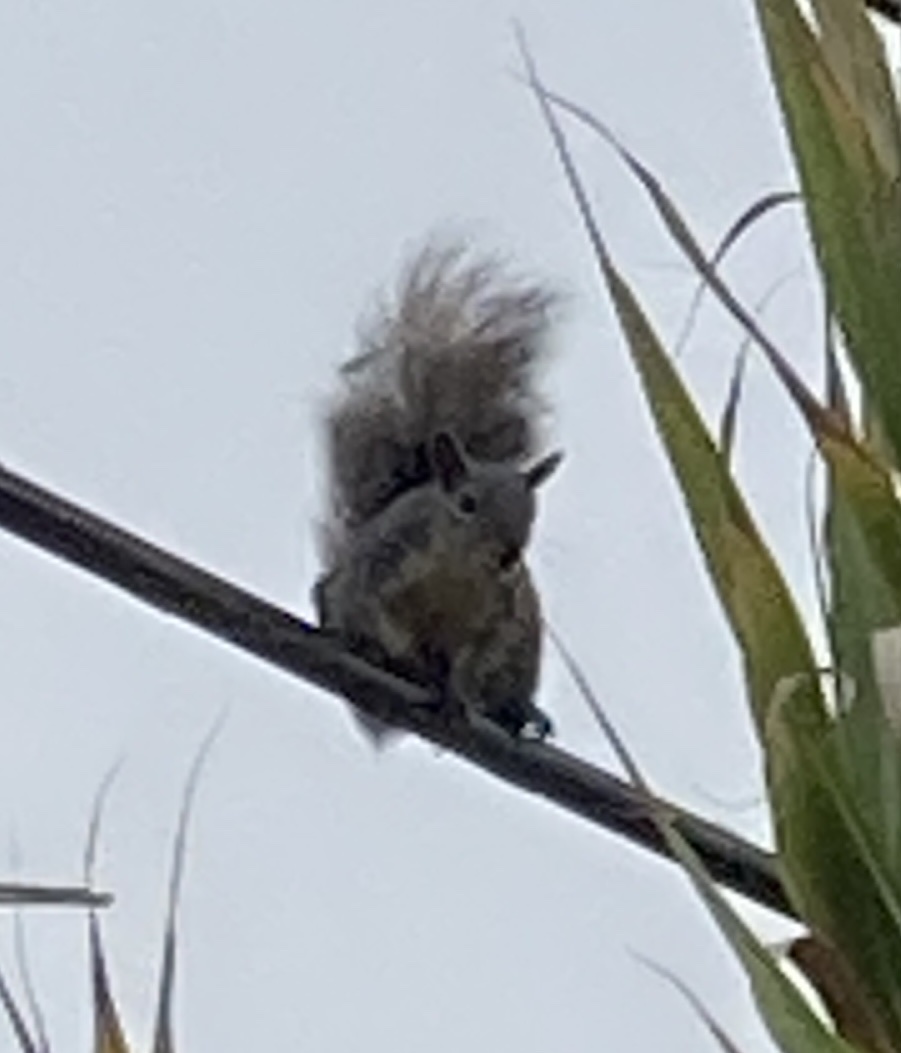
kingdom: Animalia
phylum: Chordata
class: Mammalia
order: Rodentia
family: Sciuridae
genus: Sciurus
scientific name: Sciurus griseus
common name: Western gray squirrel
